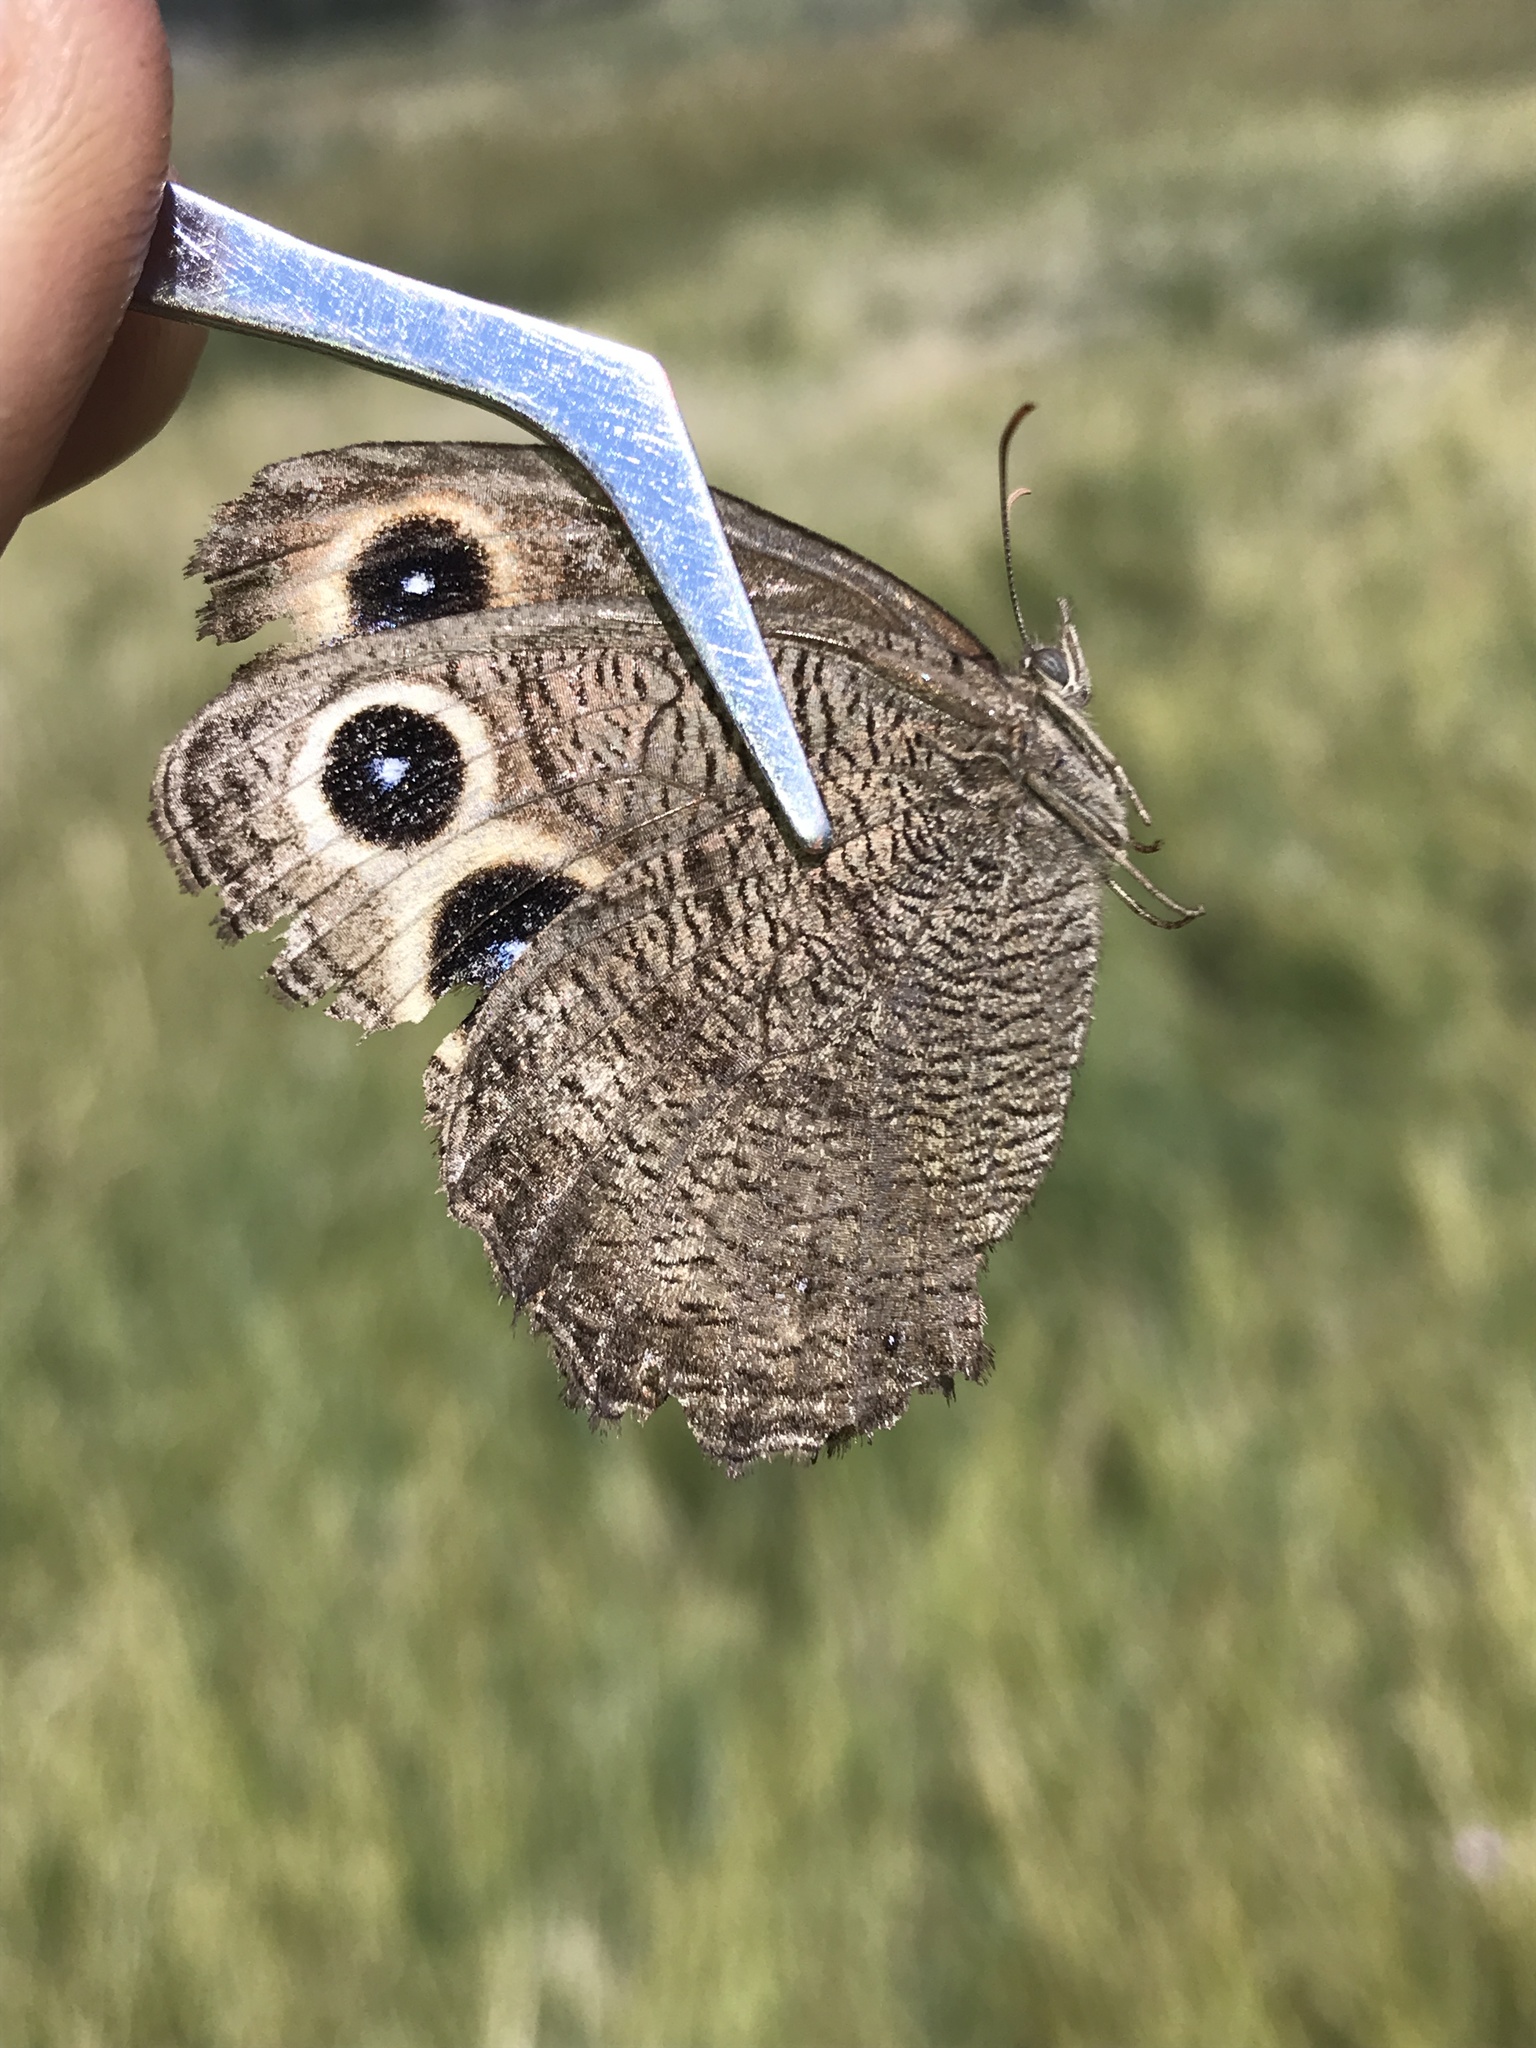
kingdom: Animalia
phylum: Arthropoda
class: Insecta
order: Lepidoptera
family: Nymphalidae
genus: Cercyonis
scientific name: Cercyonis pegala
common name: Common wood-nymph
